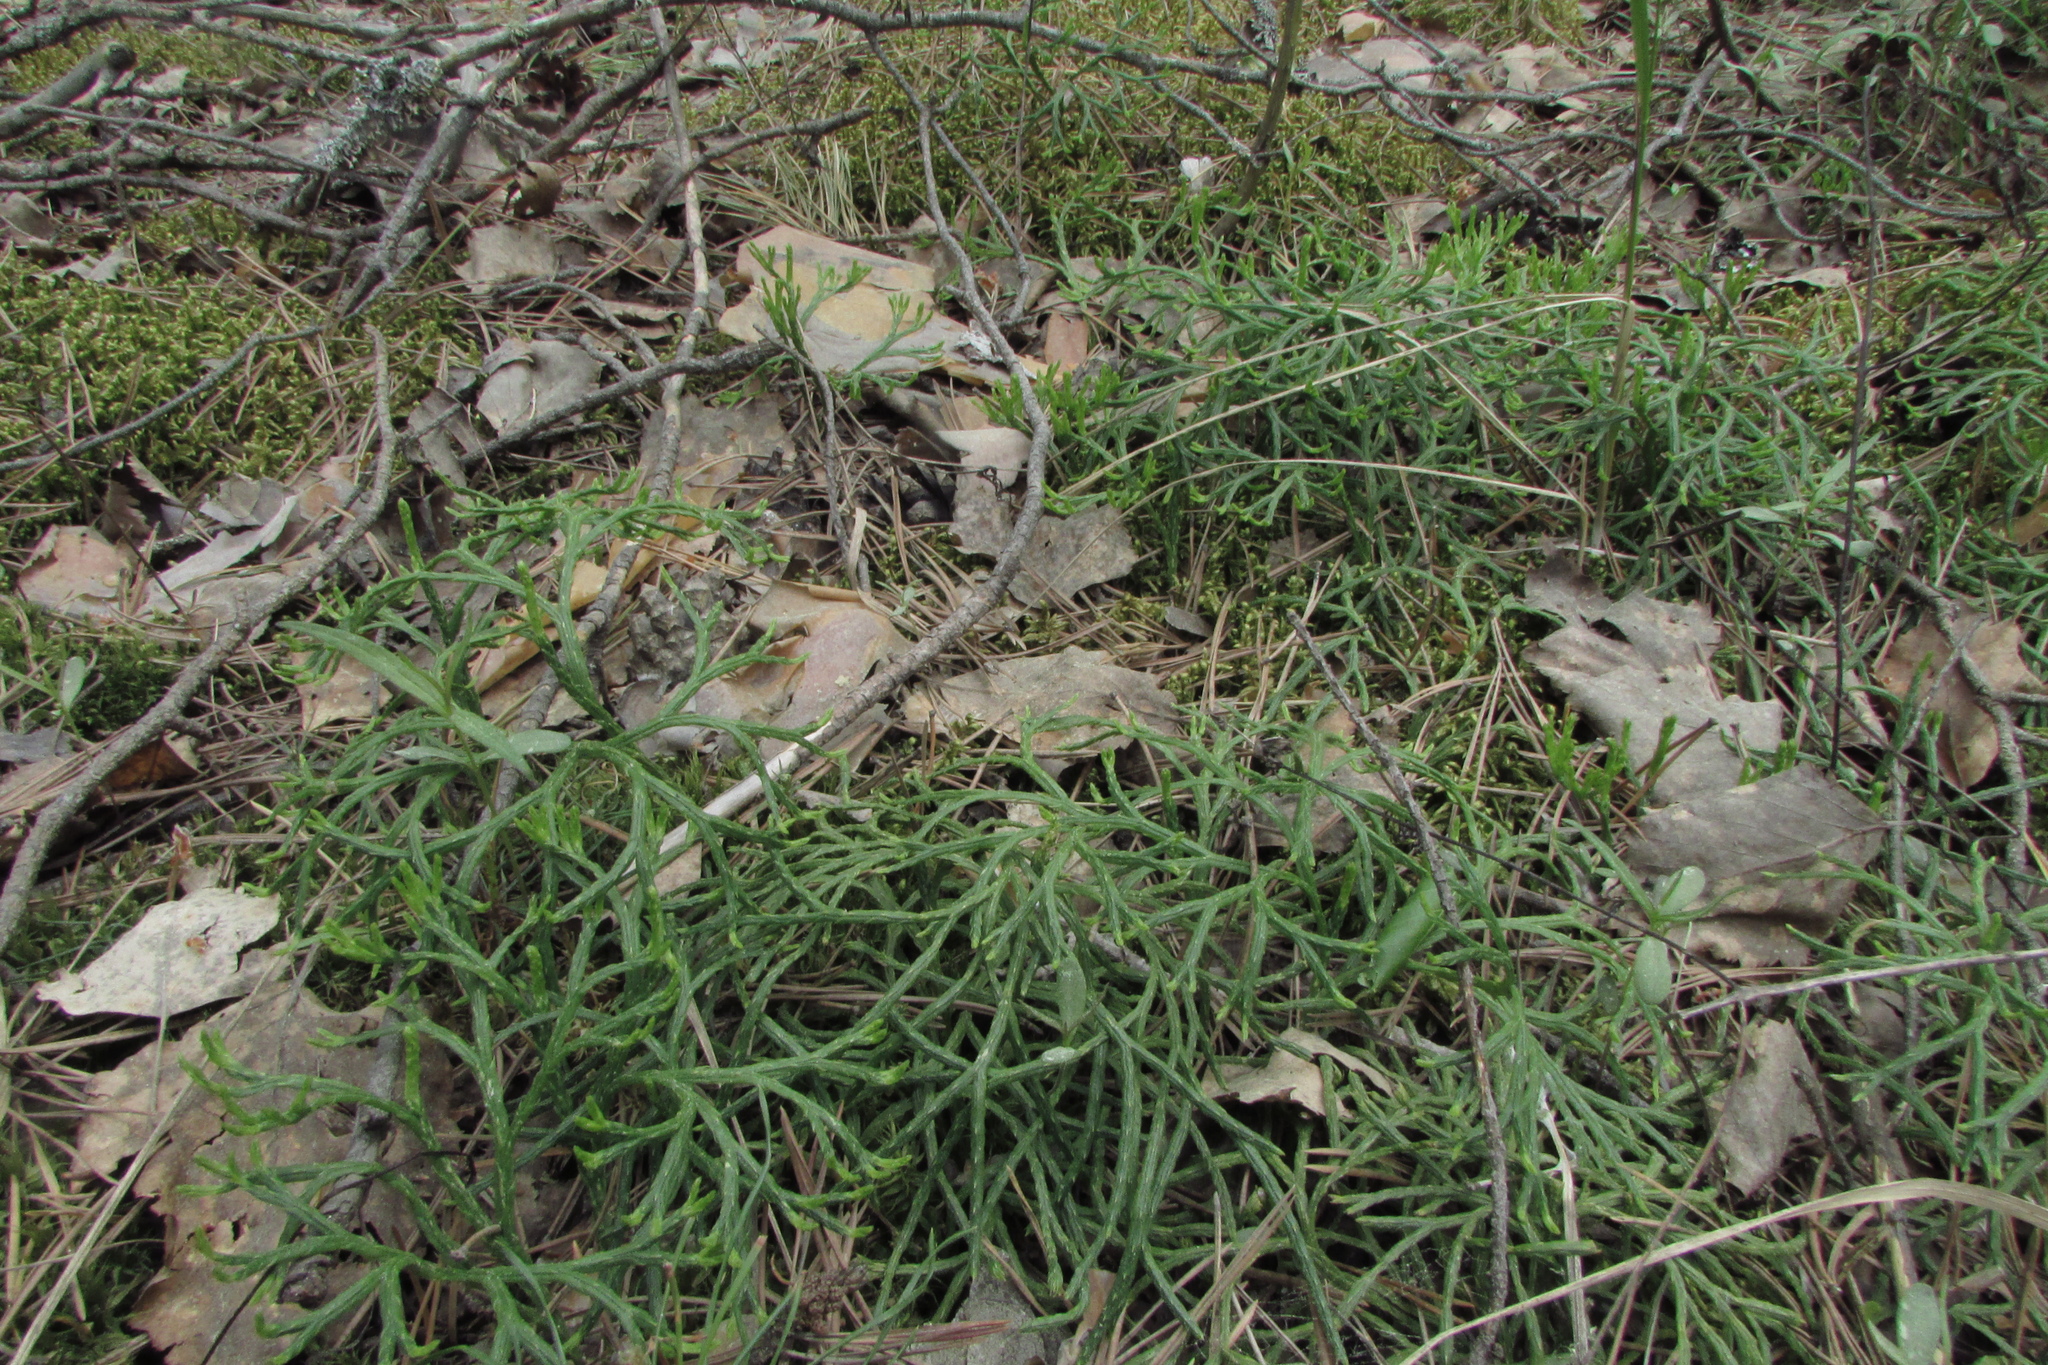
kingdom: Plantae
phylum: Tracheophyta
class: Lycopodiopsida
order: Lycopodiales
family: Lycopodiaceae
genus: Diphasiastrum
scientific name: Diphasiastrum complanatum
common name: Northern running-pine
